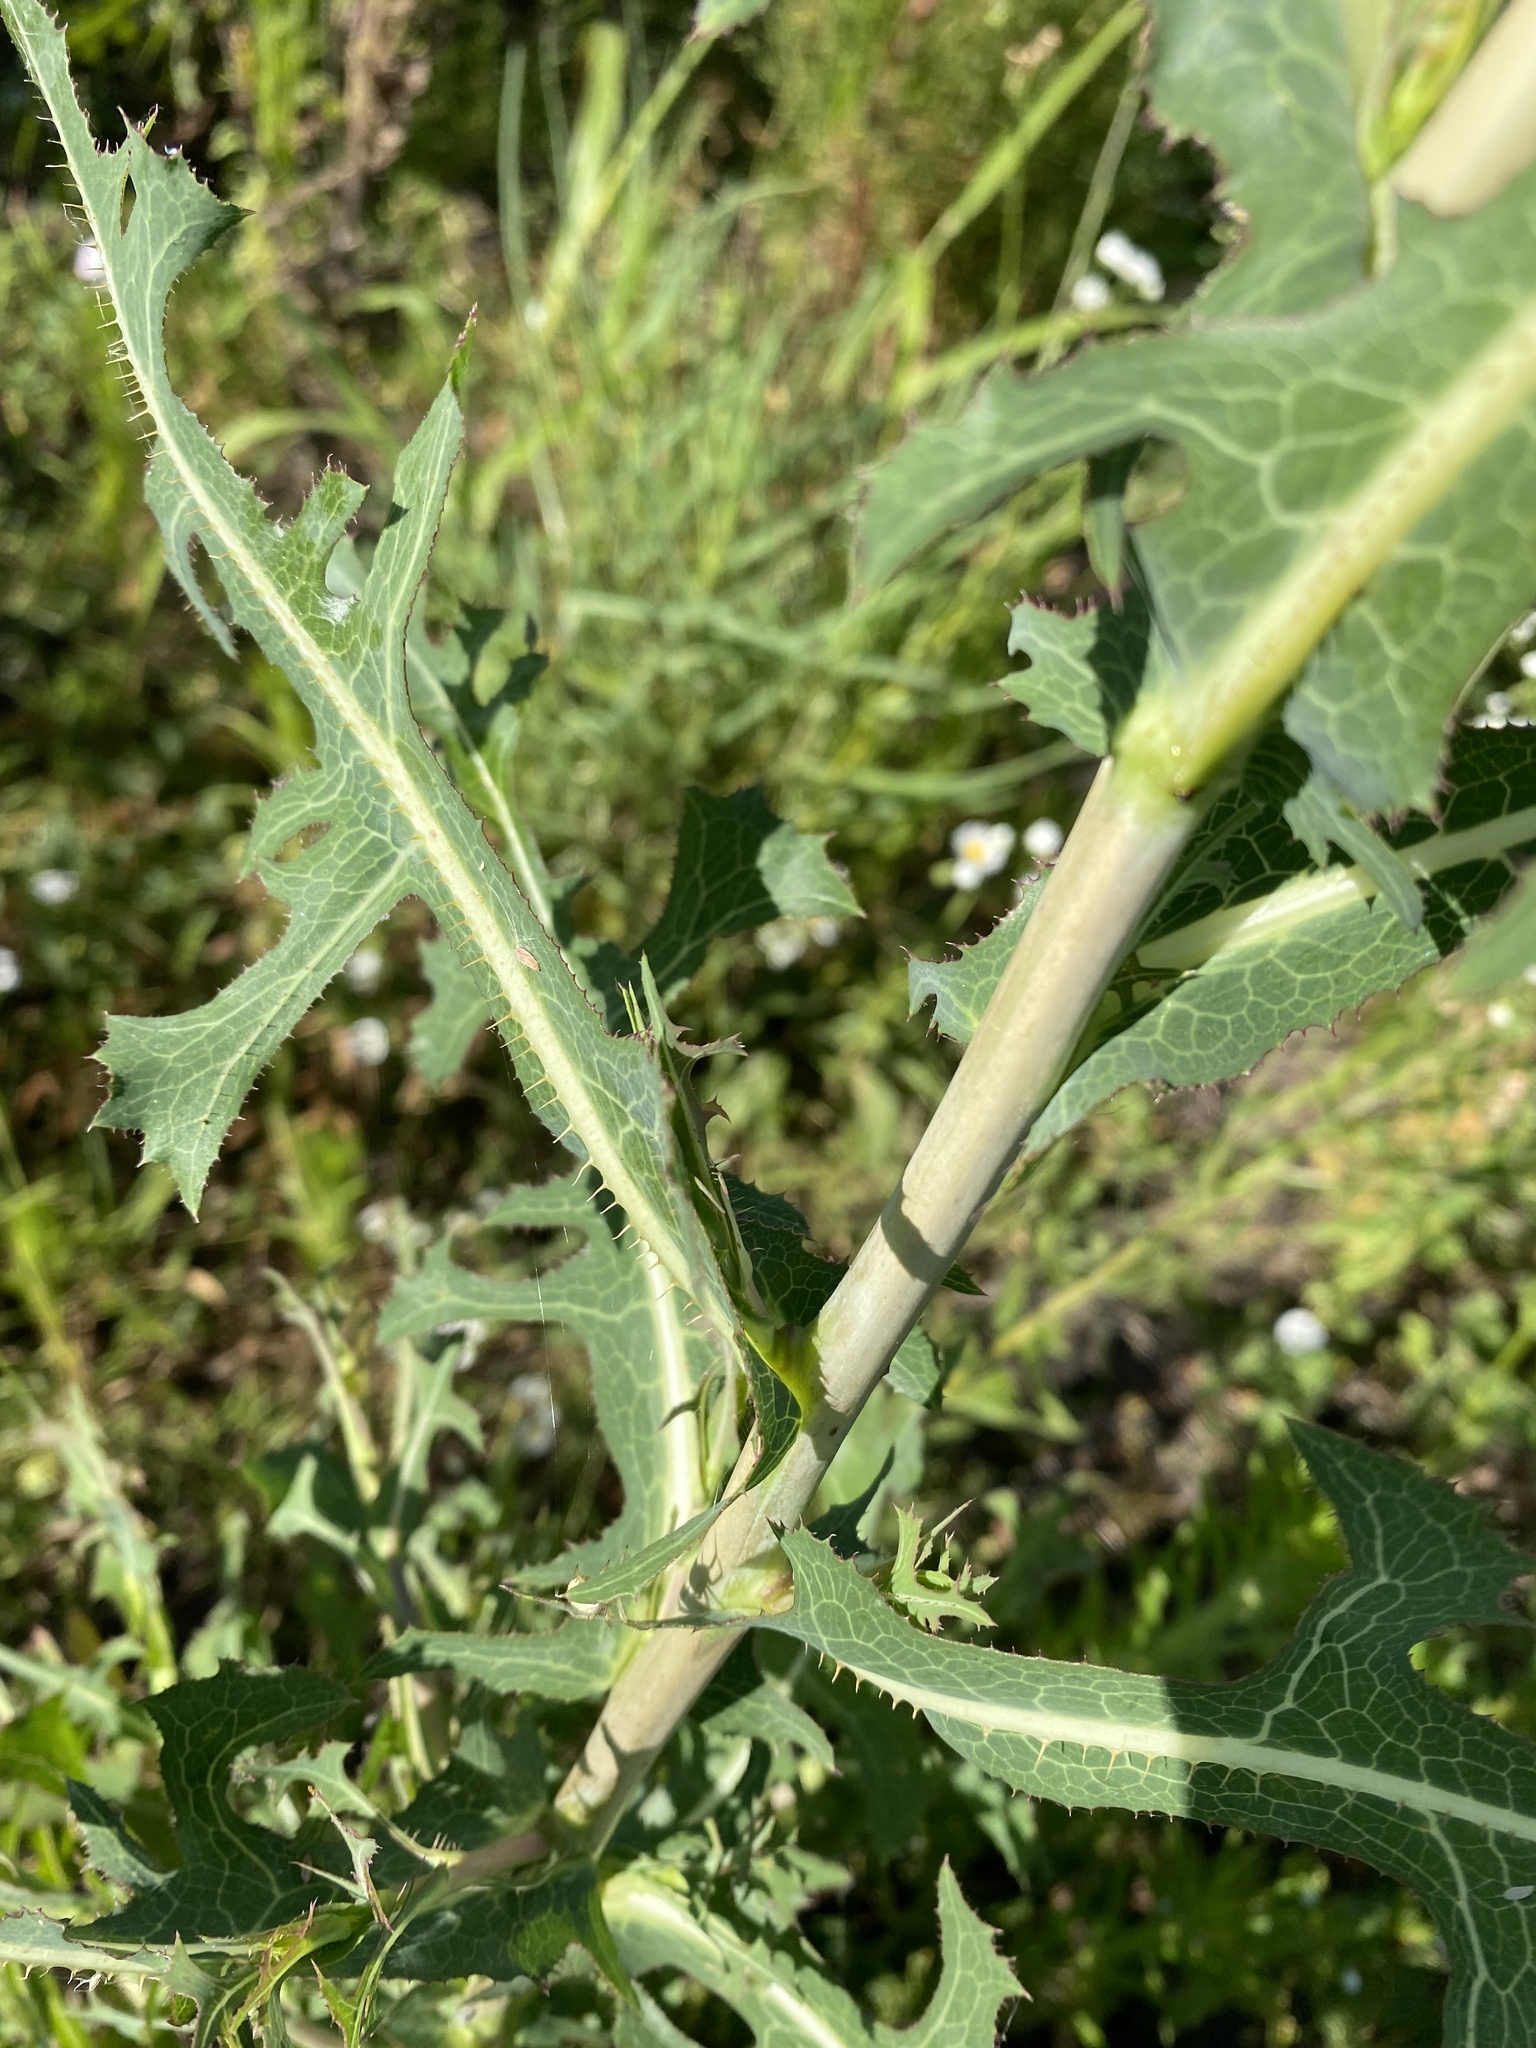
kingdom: Plantae
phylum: Tracheophyta
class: Magnoliopsida
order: Asterales
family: Asteraceae
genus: Lactuca
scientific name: Lactuca serriola
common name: Prickly lettuce
